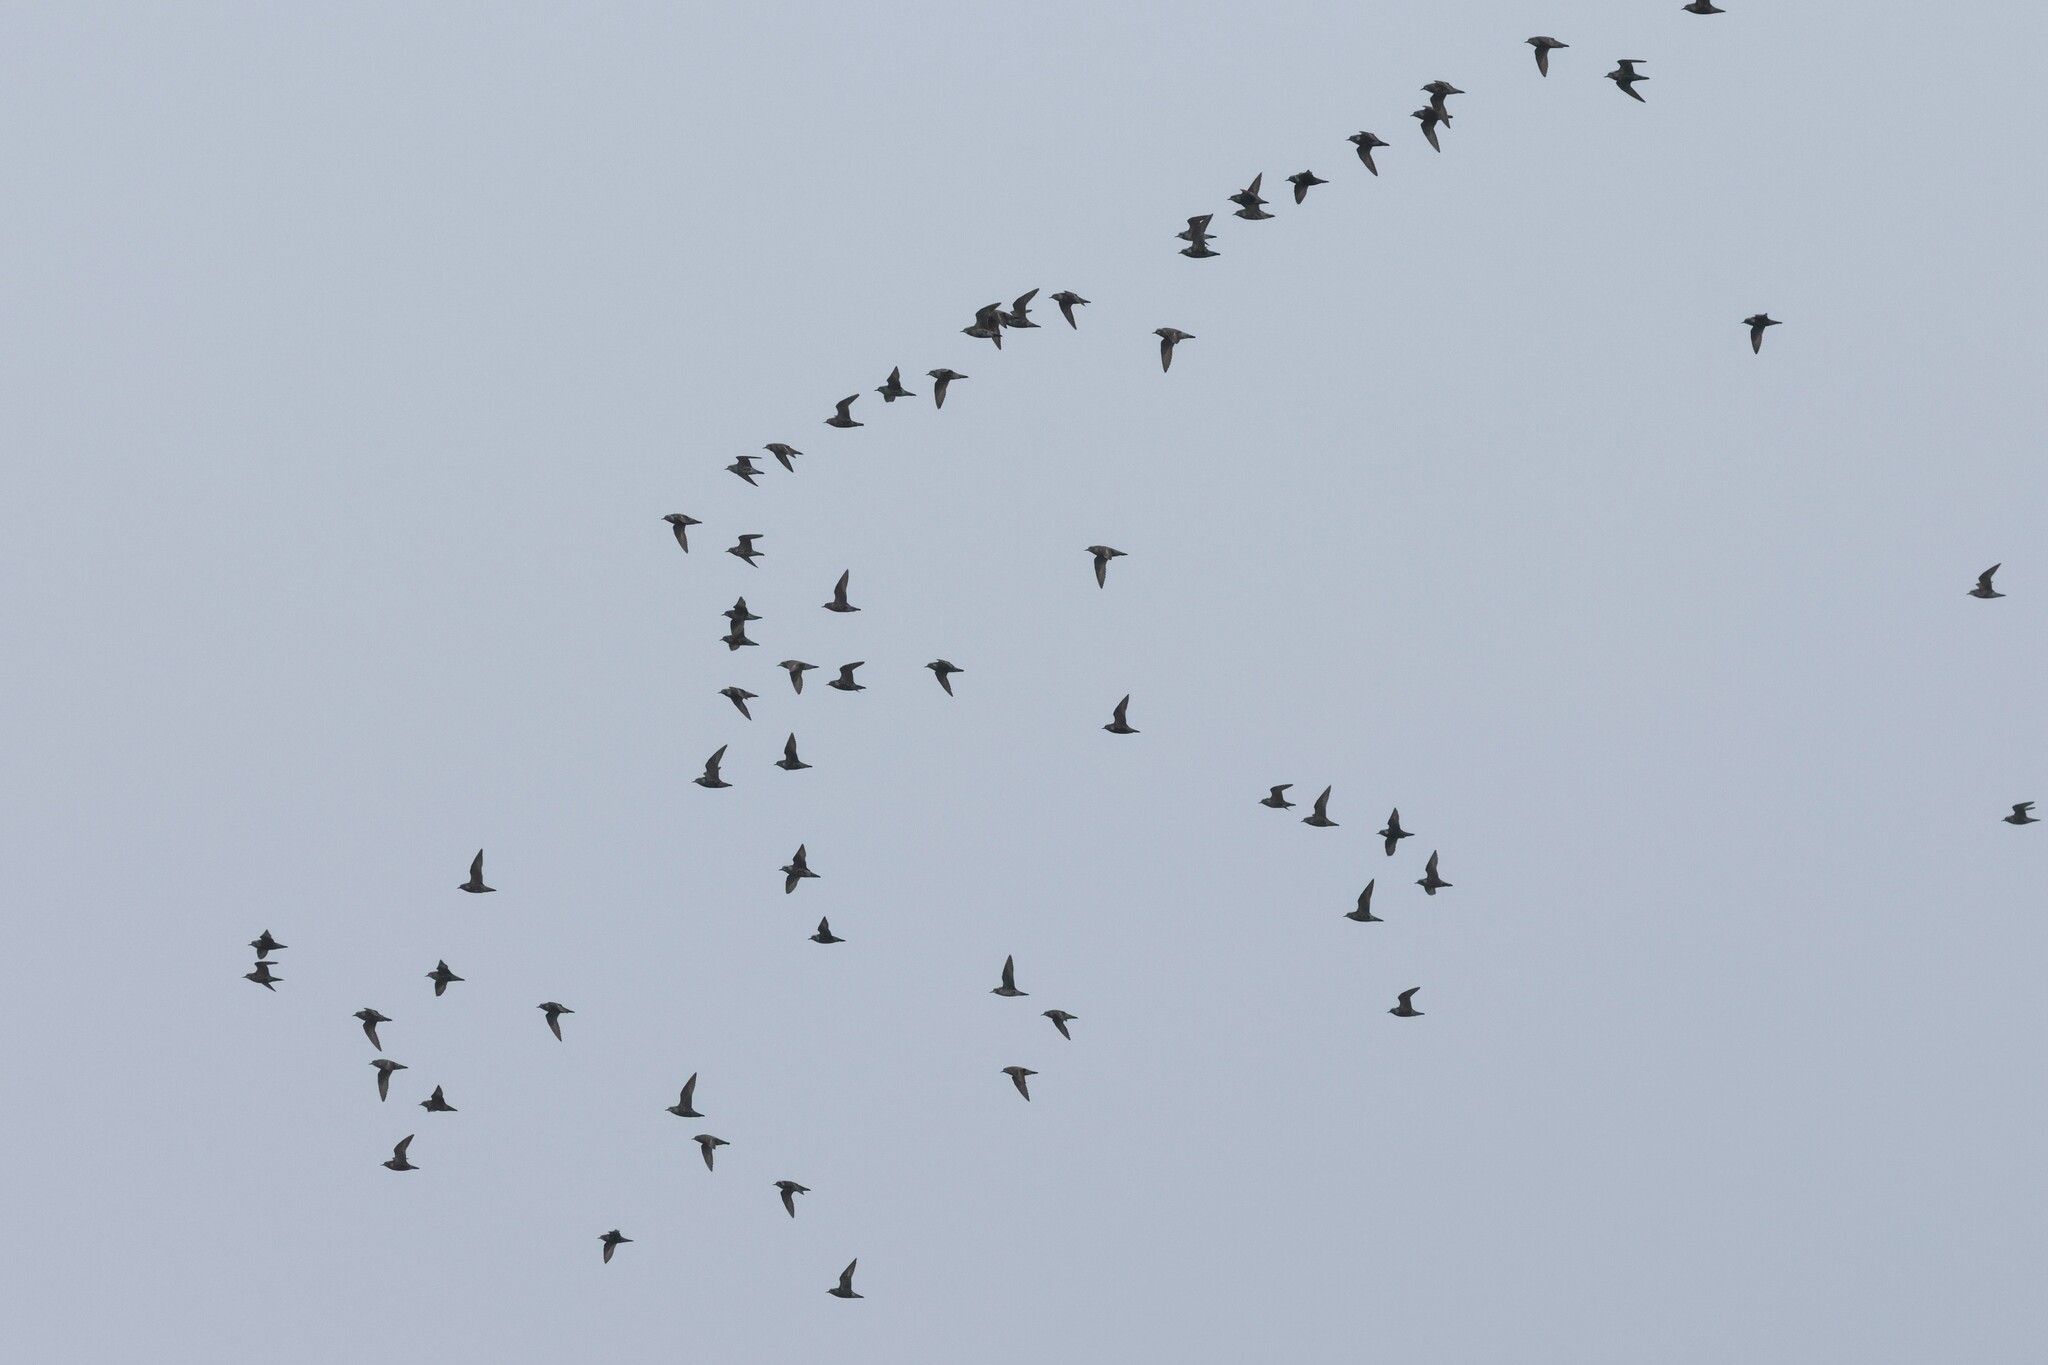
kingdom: Animalia
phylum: Chordata
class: Aves
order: Charadriiformes
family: Charadriidae
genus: Pluvialis
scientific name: Pluvialis dominica
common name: American golden plover
